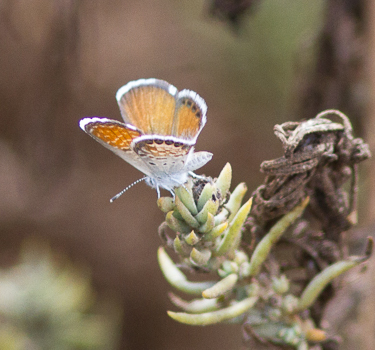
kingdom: Animalia
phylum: Arthropoda
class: Insecta
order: Lepidoptera
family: Lycaenidae
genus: Brephidium
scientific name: Brephidium exilis
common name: Pygmy blue
